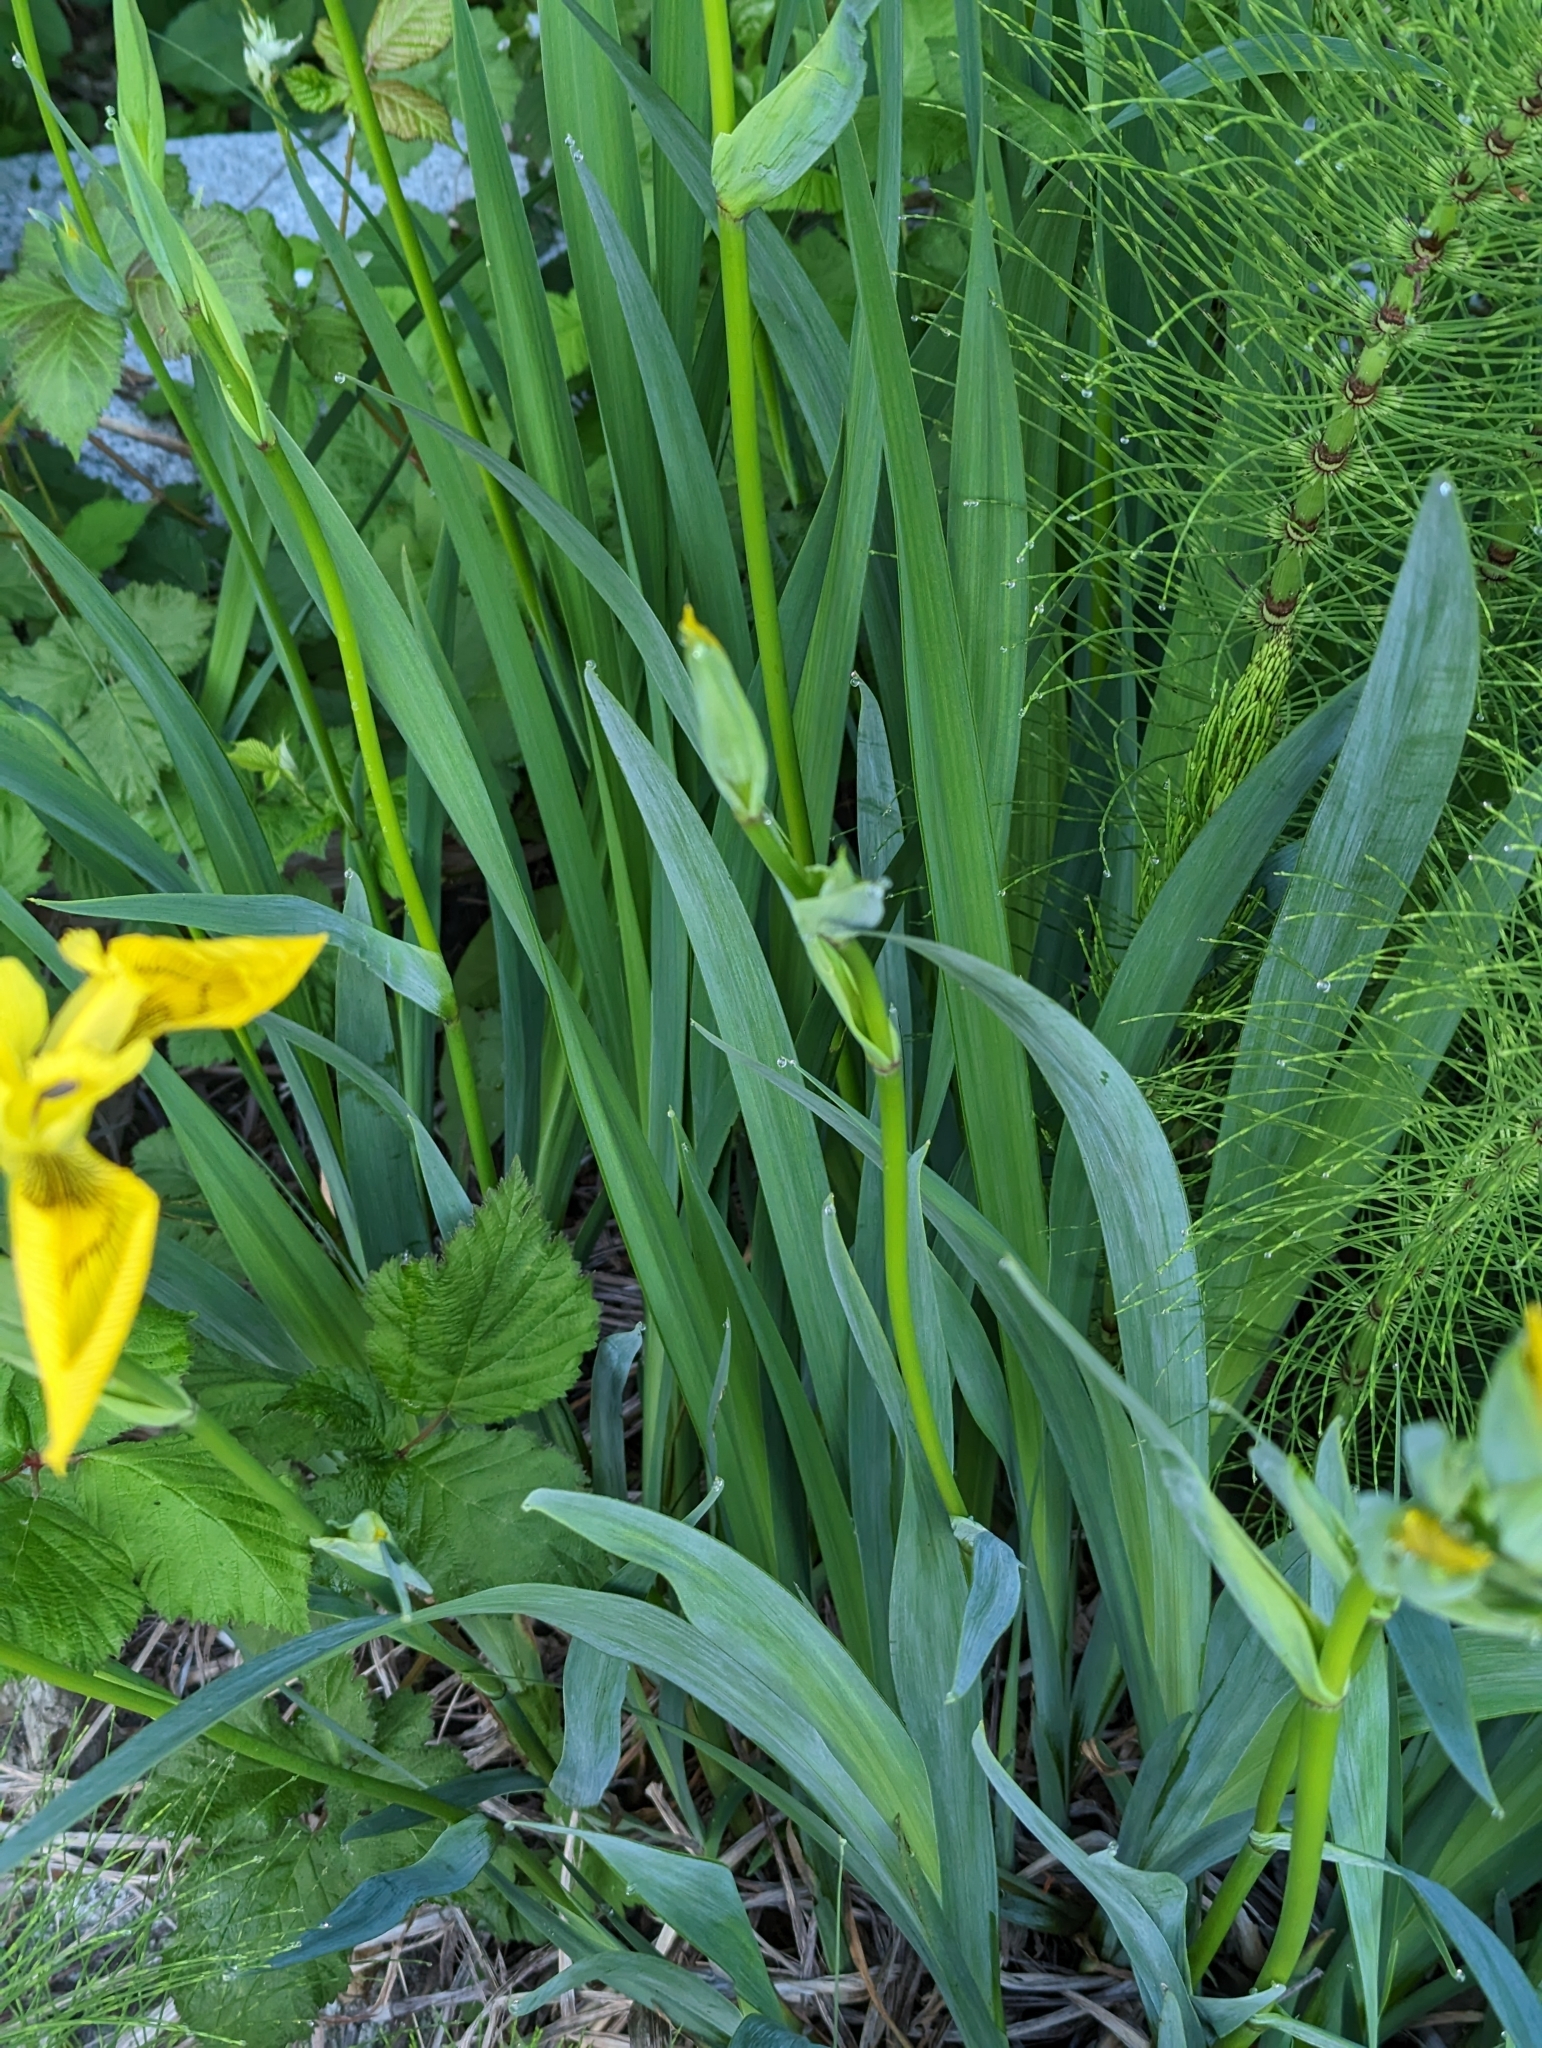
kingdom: Plantae
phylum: Tracheophyta
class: Liliopsida
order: Asparagales
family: Iridaceae
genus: Iris
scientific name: Iris pseudacorus
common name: Yellow flag
